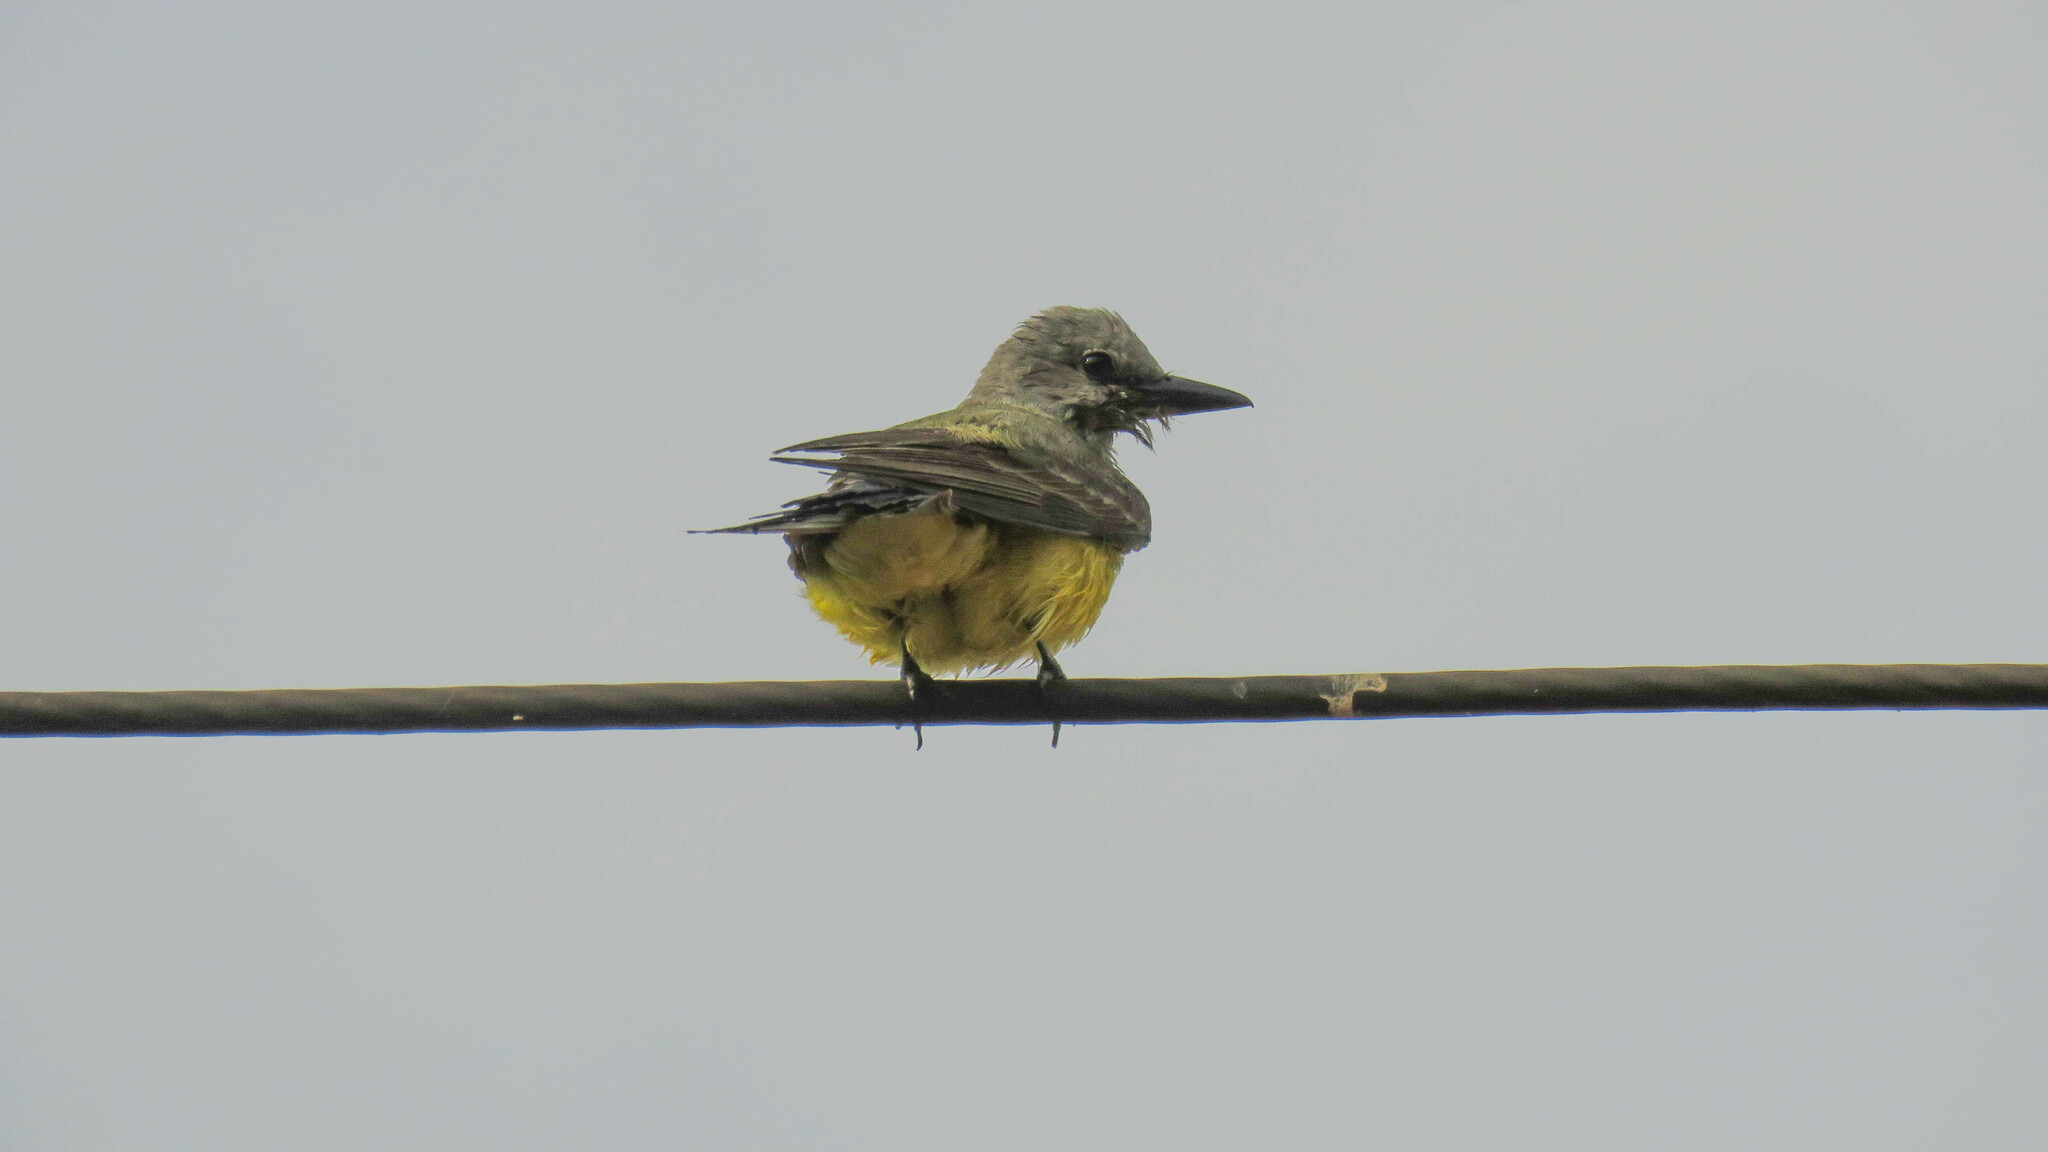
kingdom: Animalia
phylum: Chordata
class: Aves
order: Passeriformes
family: Tyrannidae
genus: Tyrannus
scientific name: Tyrannus melancholicus
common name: Tropical kingbird
